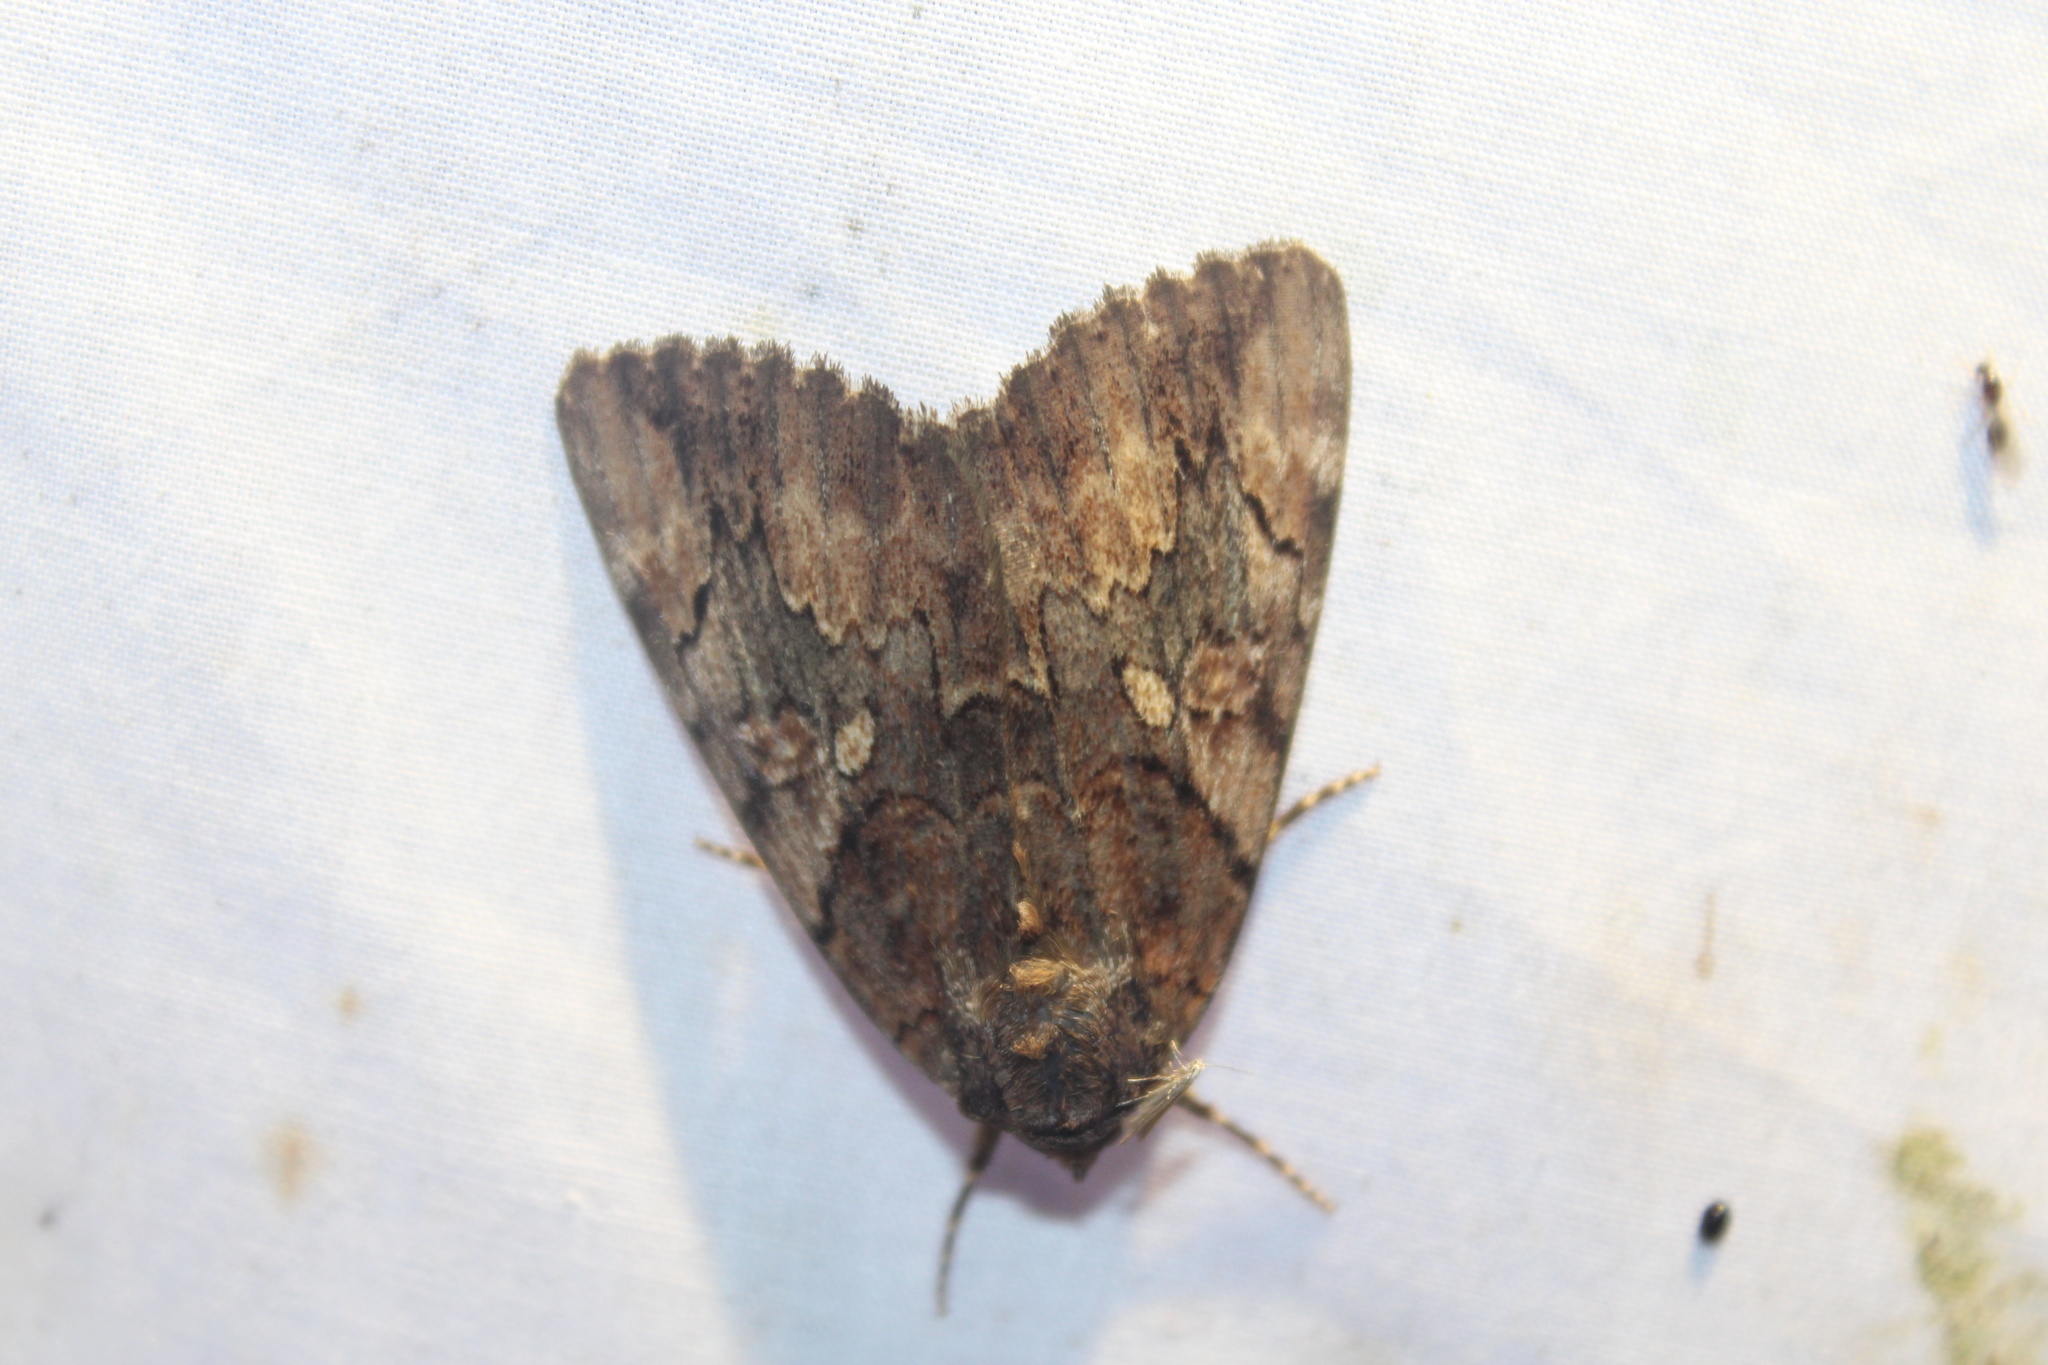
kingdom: Animalia
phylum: Arthropoda
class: Insecta
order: Lepidoptera
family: Erebidae
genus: Catocala
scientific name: Catocala muliercula
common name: The little wife underwing
